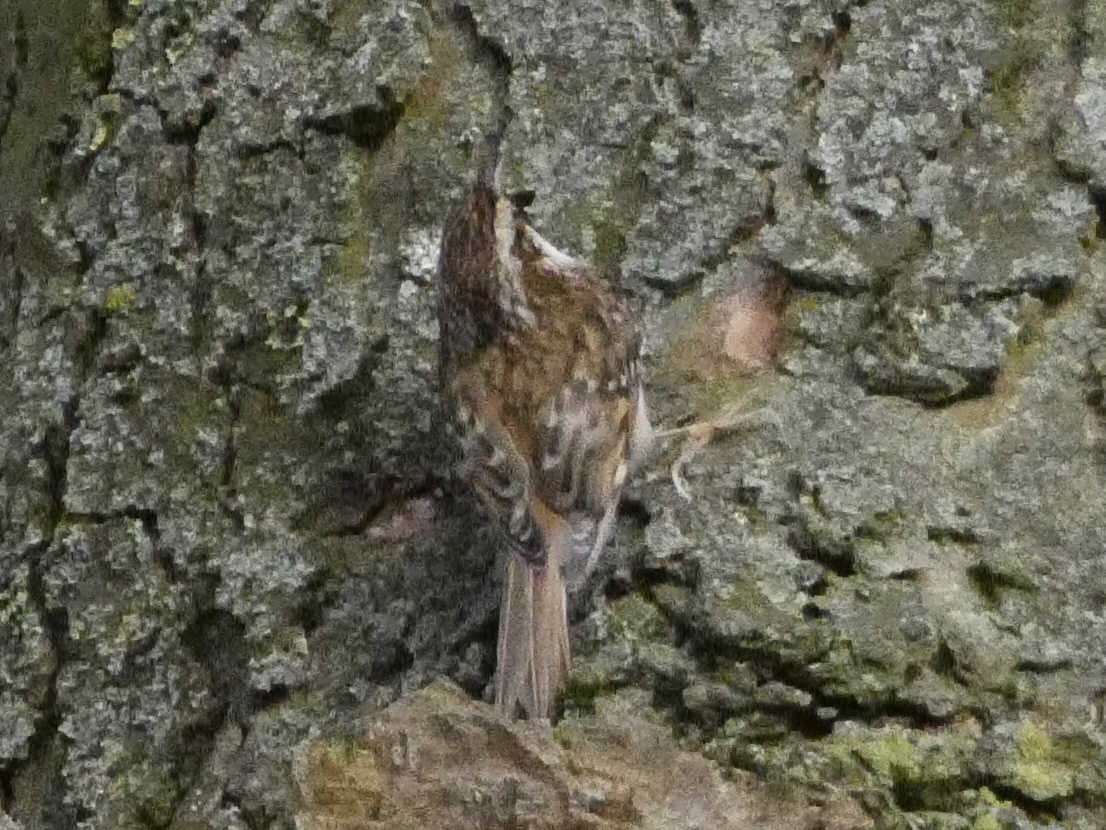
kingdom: Animalia
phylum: Chordata
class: Aves
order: Passeriformes
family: Certhiidae
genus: Certhia
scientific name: Certhia familiaris
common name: Eurasian treecreeper
